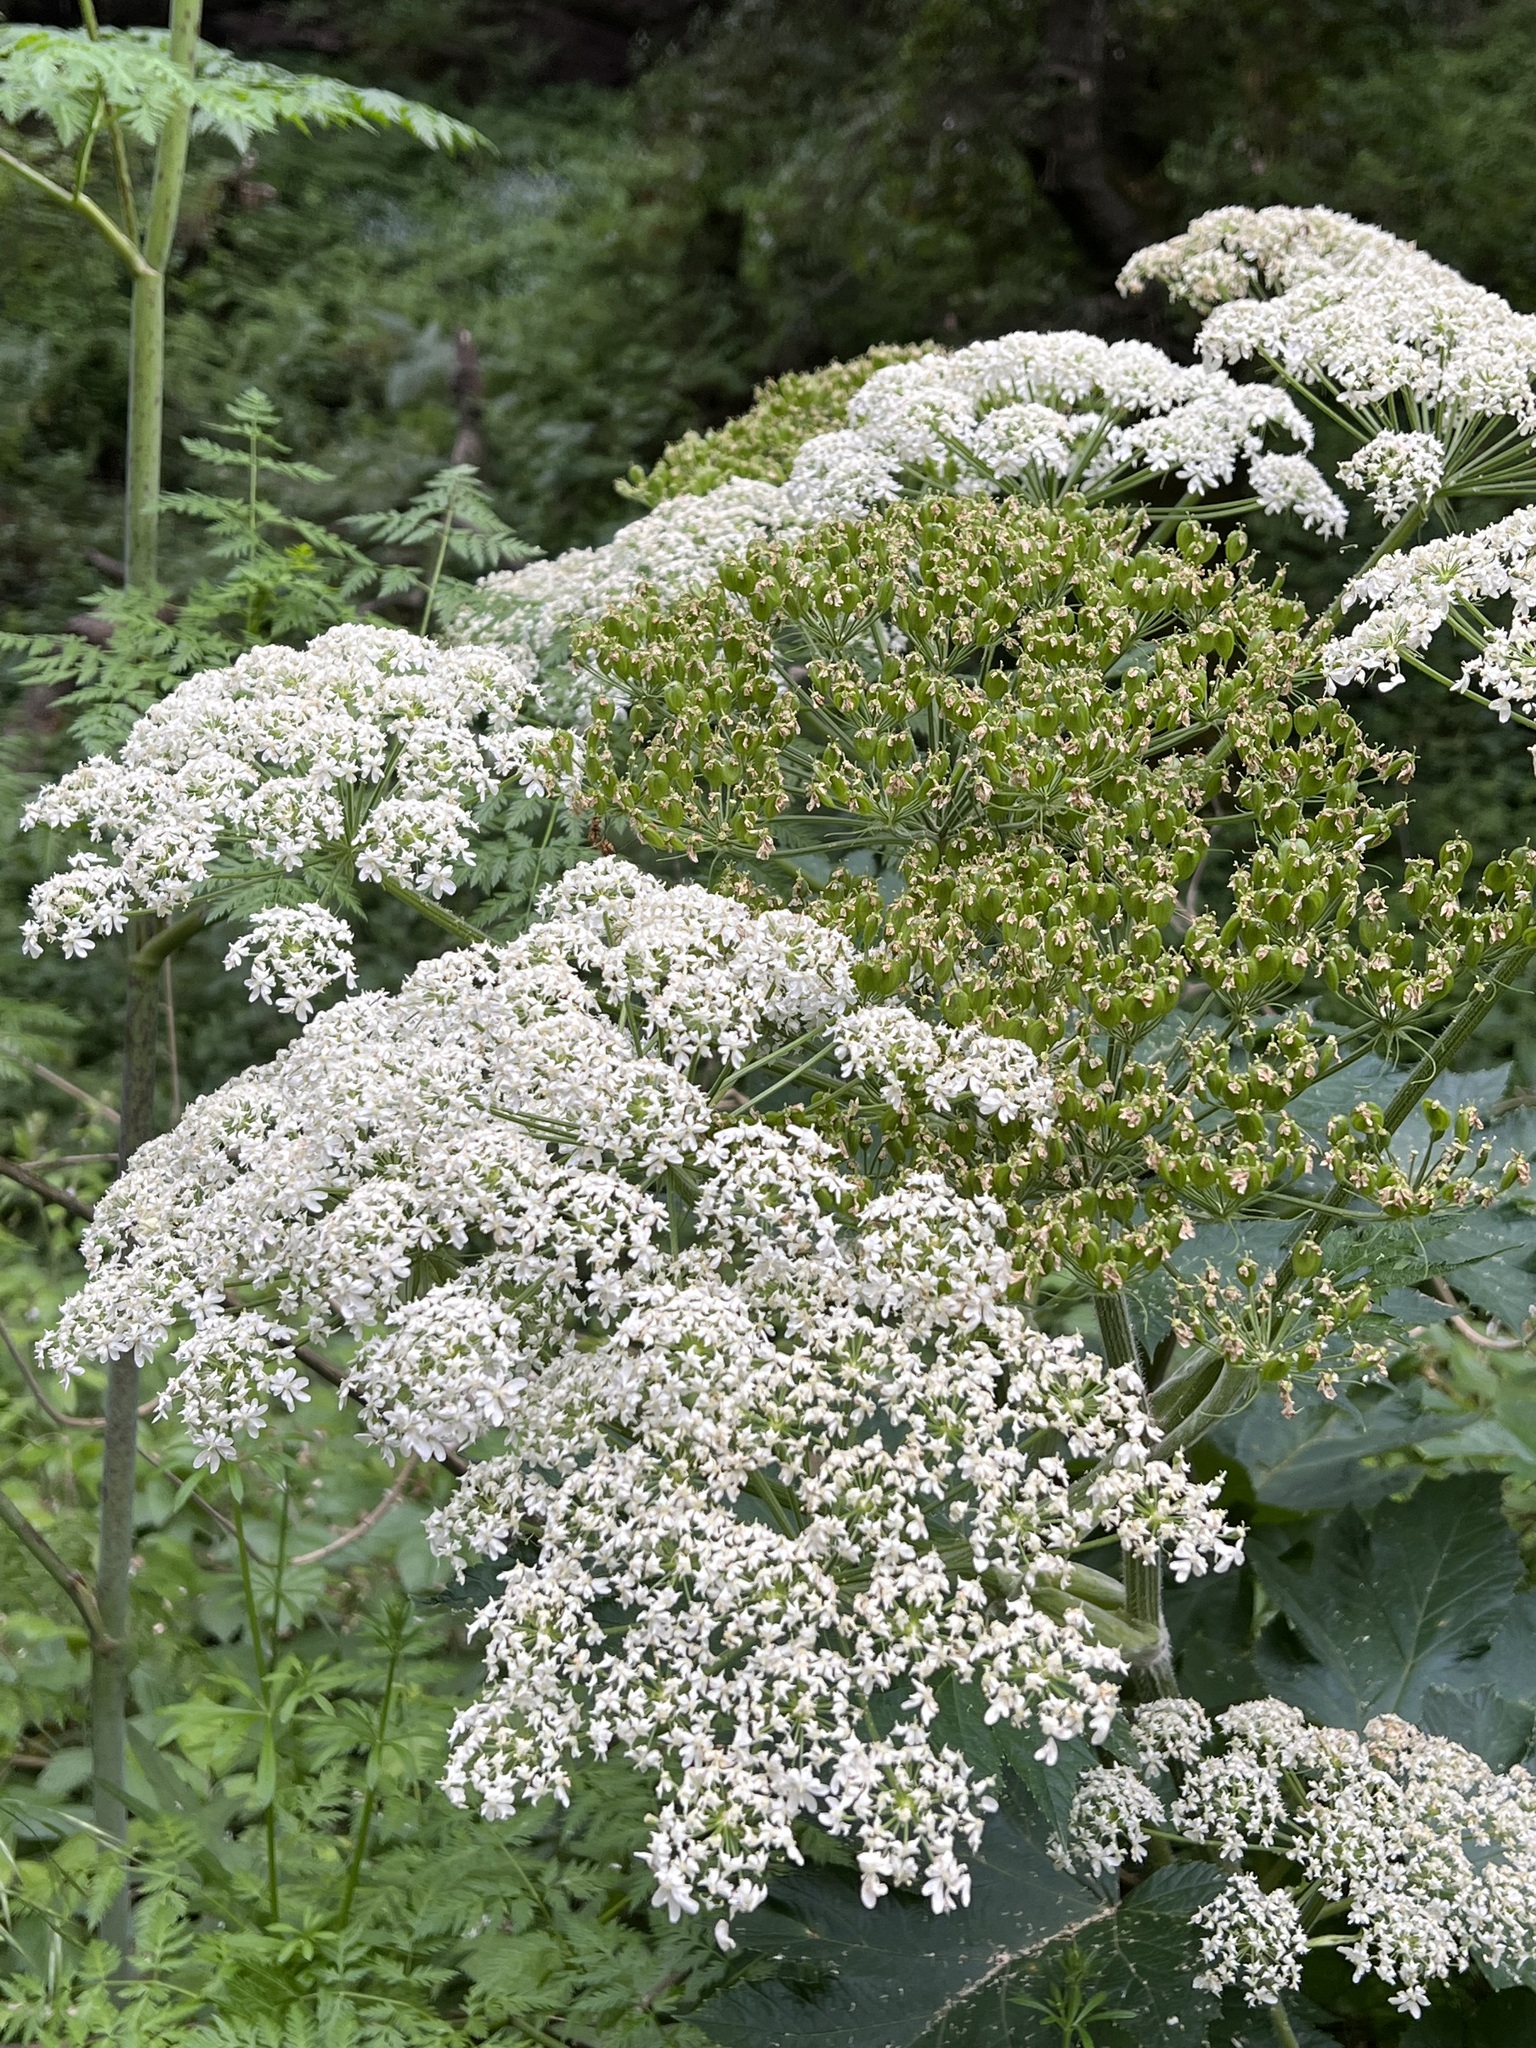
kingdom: Plantae
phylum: Tracheophyta
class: Magnoliopsida
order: Apiales
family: Apiaceae
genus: Heracleum
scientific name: Heracleum maximum
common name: American cow parsnip
